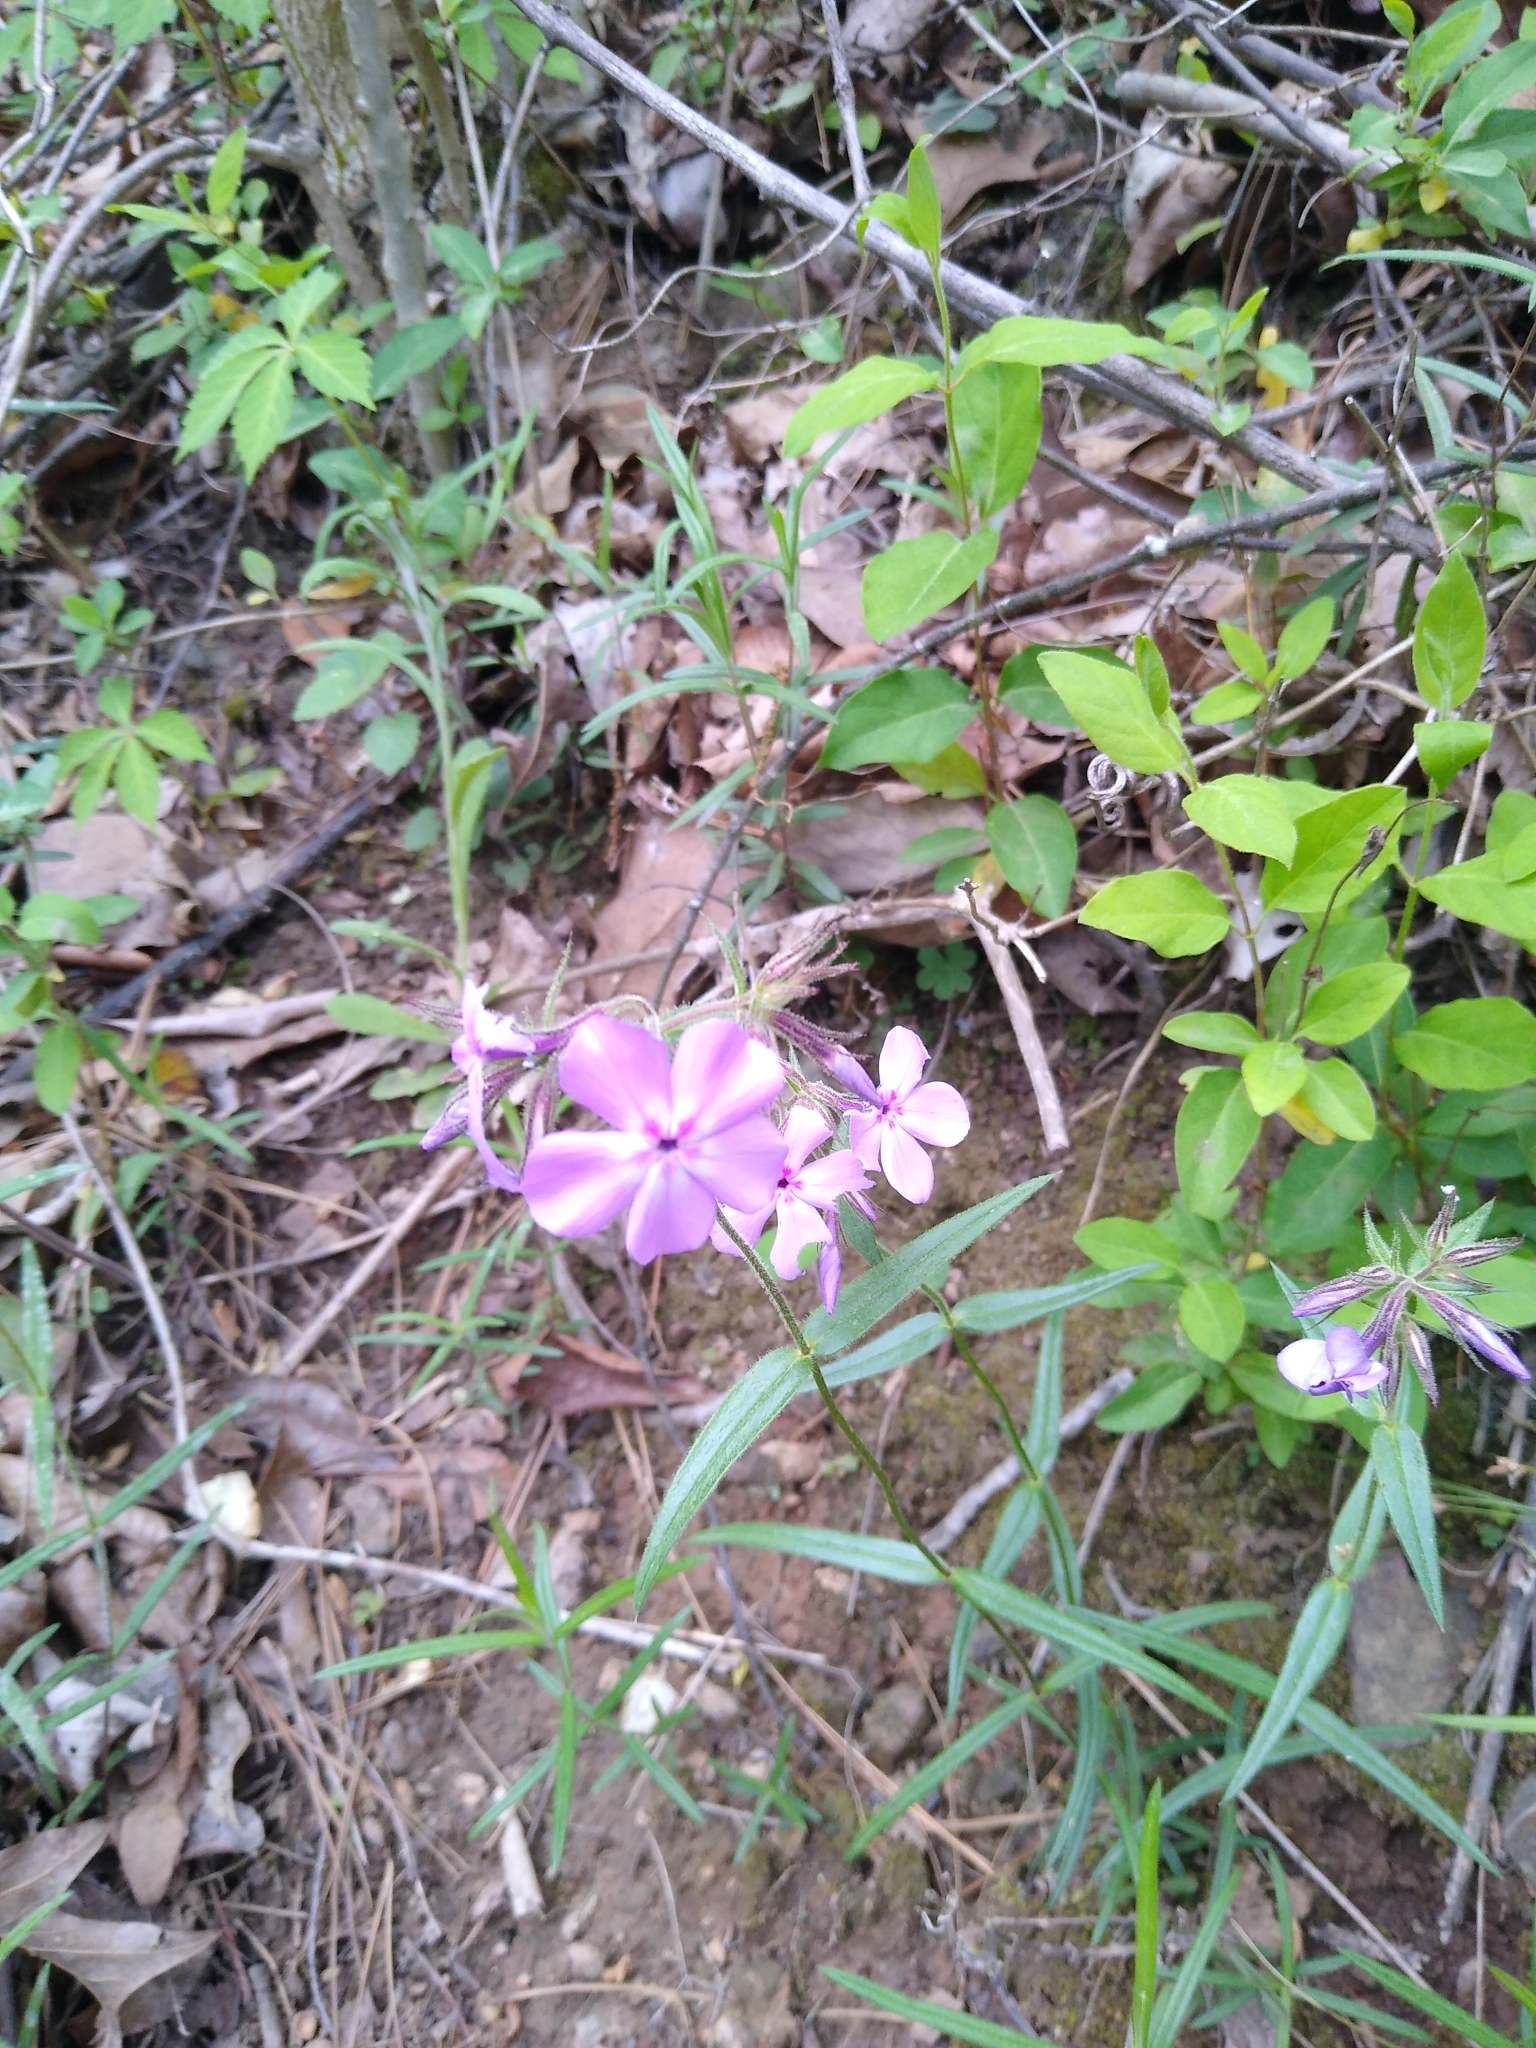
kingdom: Plantae
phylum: Tracheophyta
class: Magnoliopsida
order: Ericales
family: Polemoniaceae
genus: Phlox
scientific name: Phlox pilosa
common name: Prairie phlox
